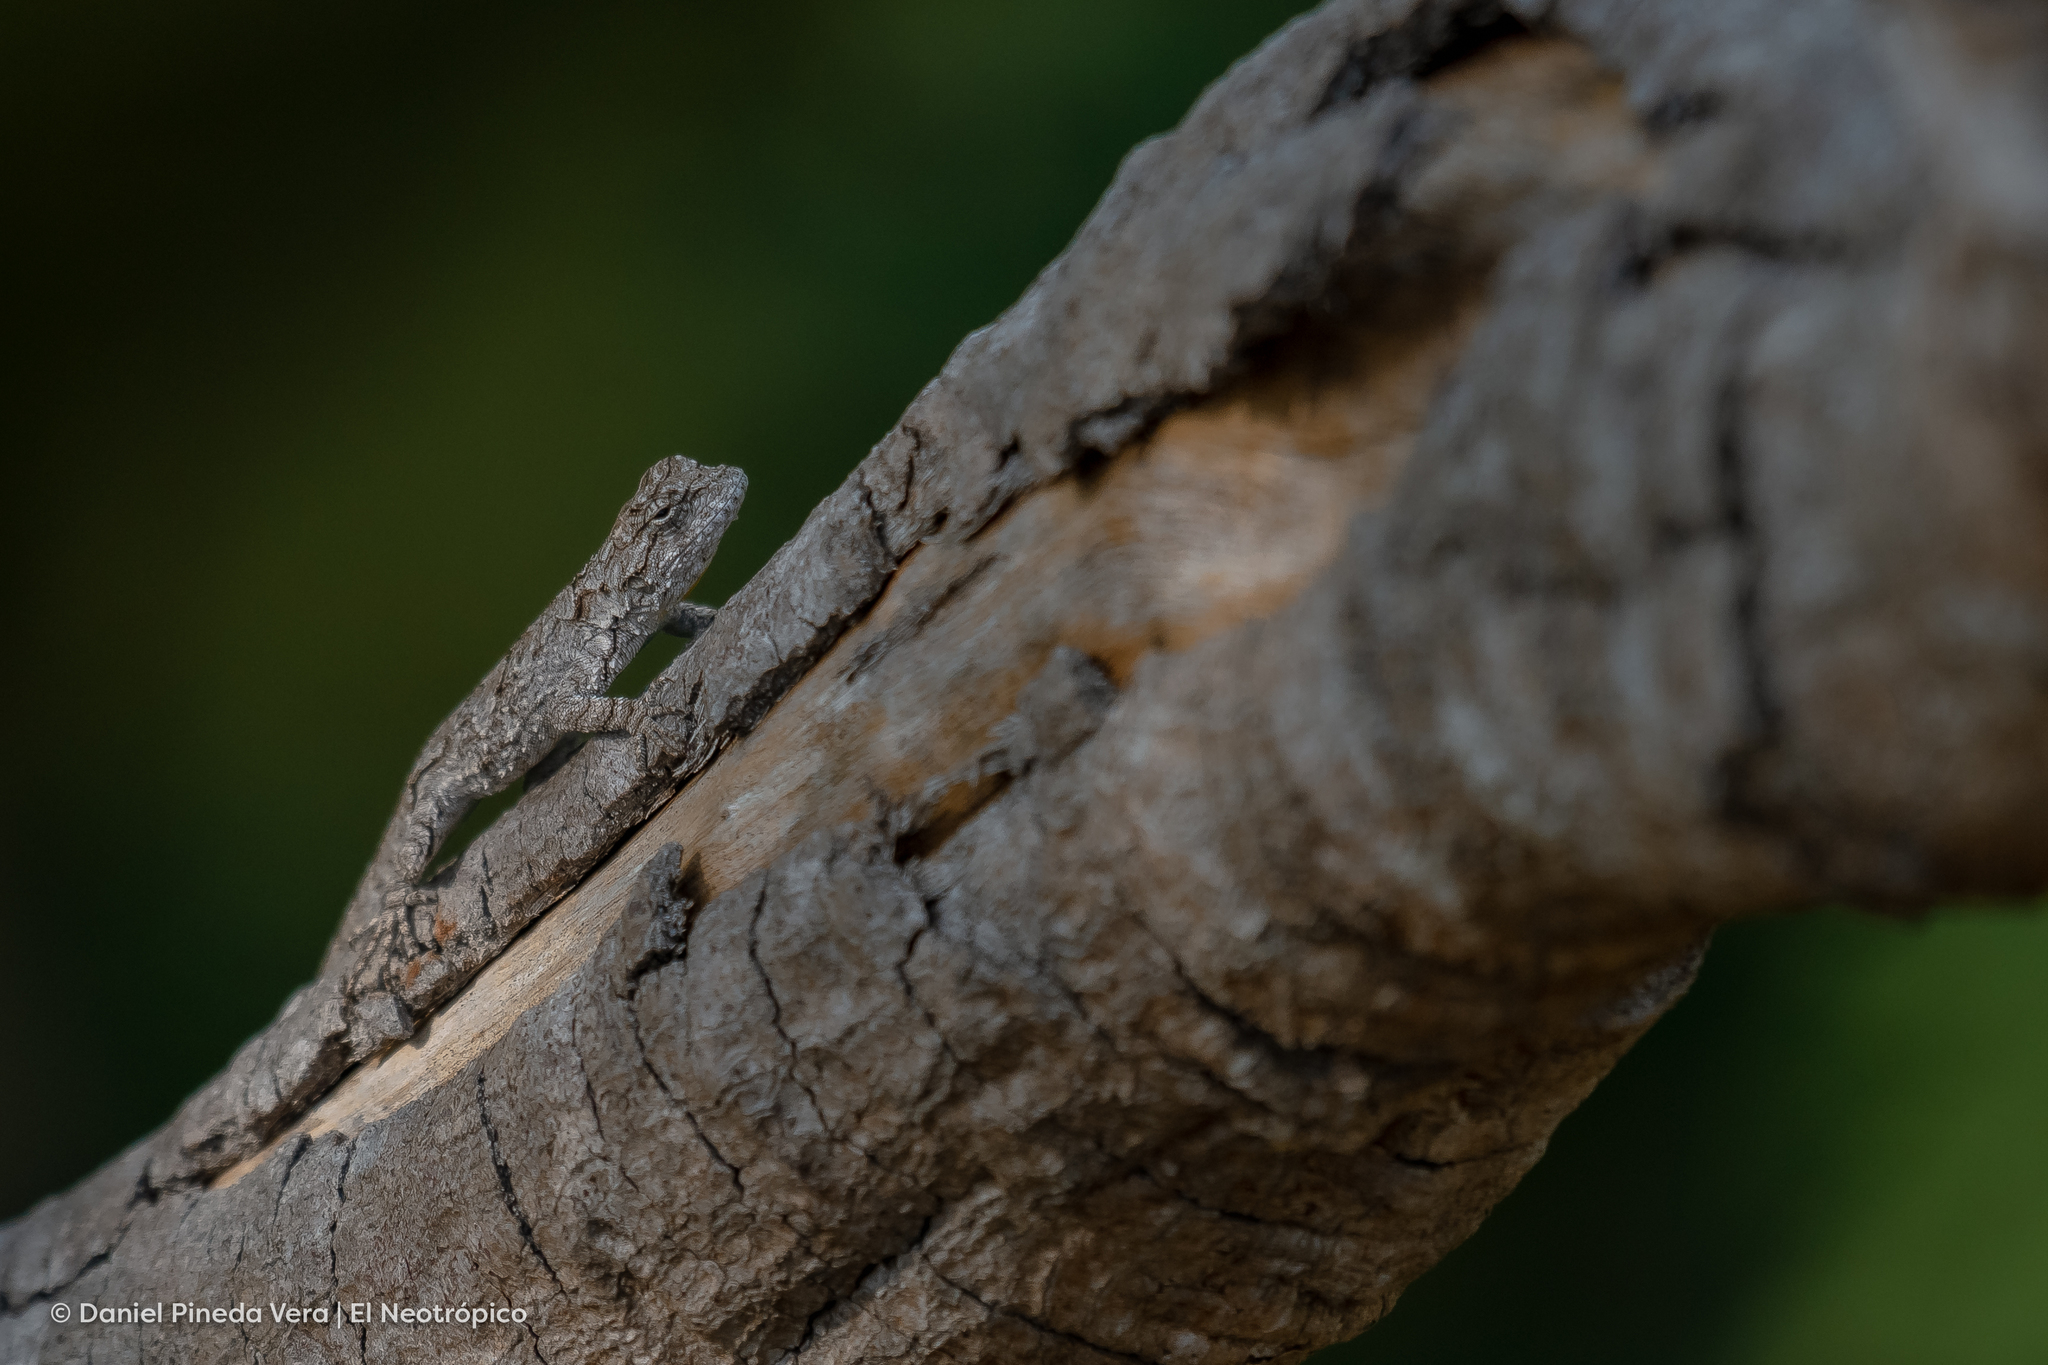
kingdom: Animalia
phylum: Chordata
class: Squamata
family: Phrynosomatidae
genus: Urosaurus
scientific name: Urosaurus bicarinatus
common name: Tropical tree lizard
